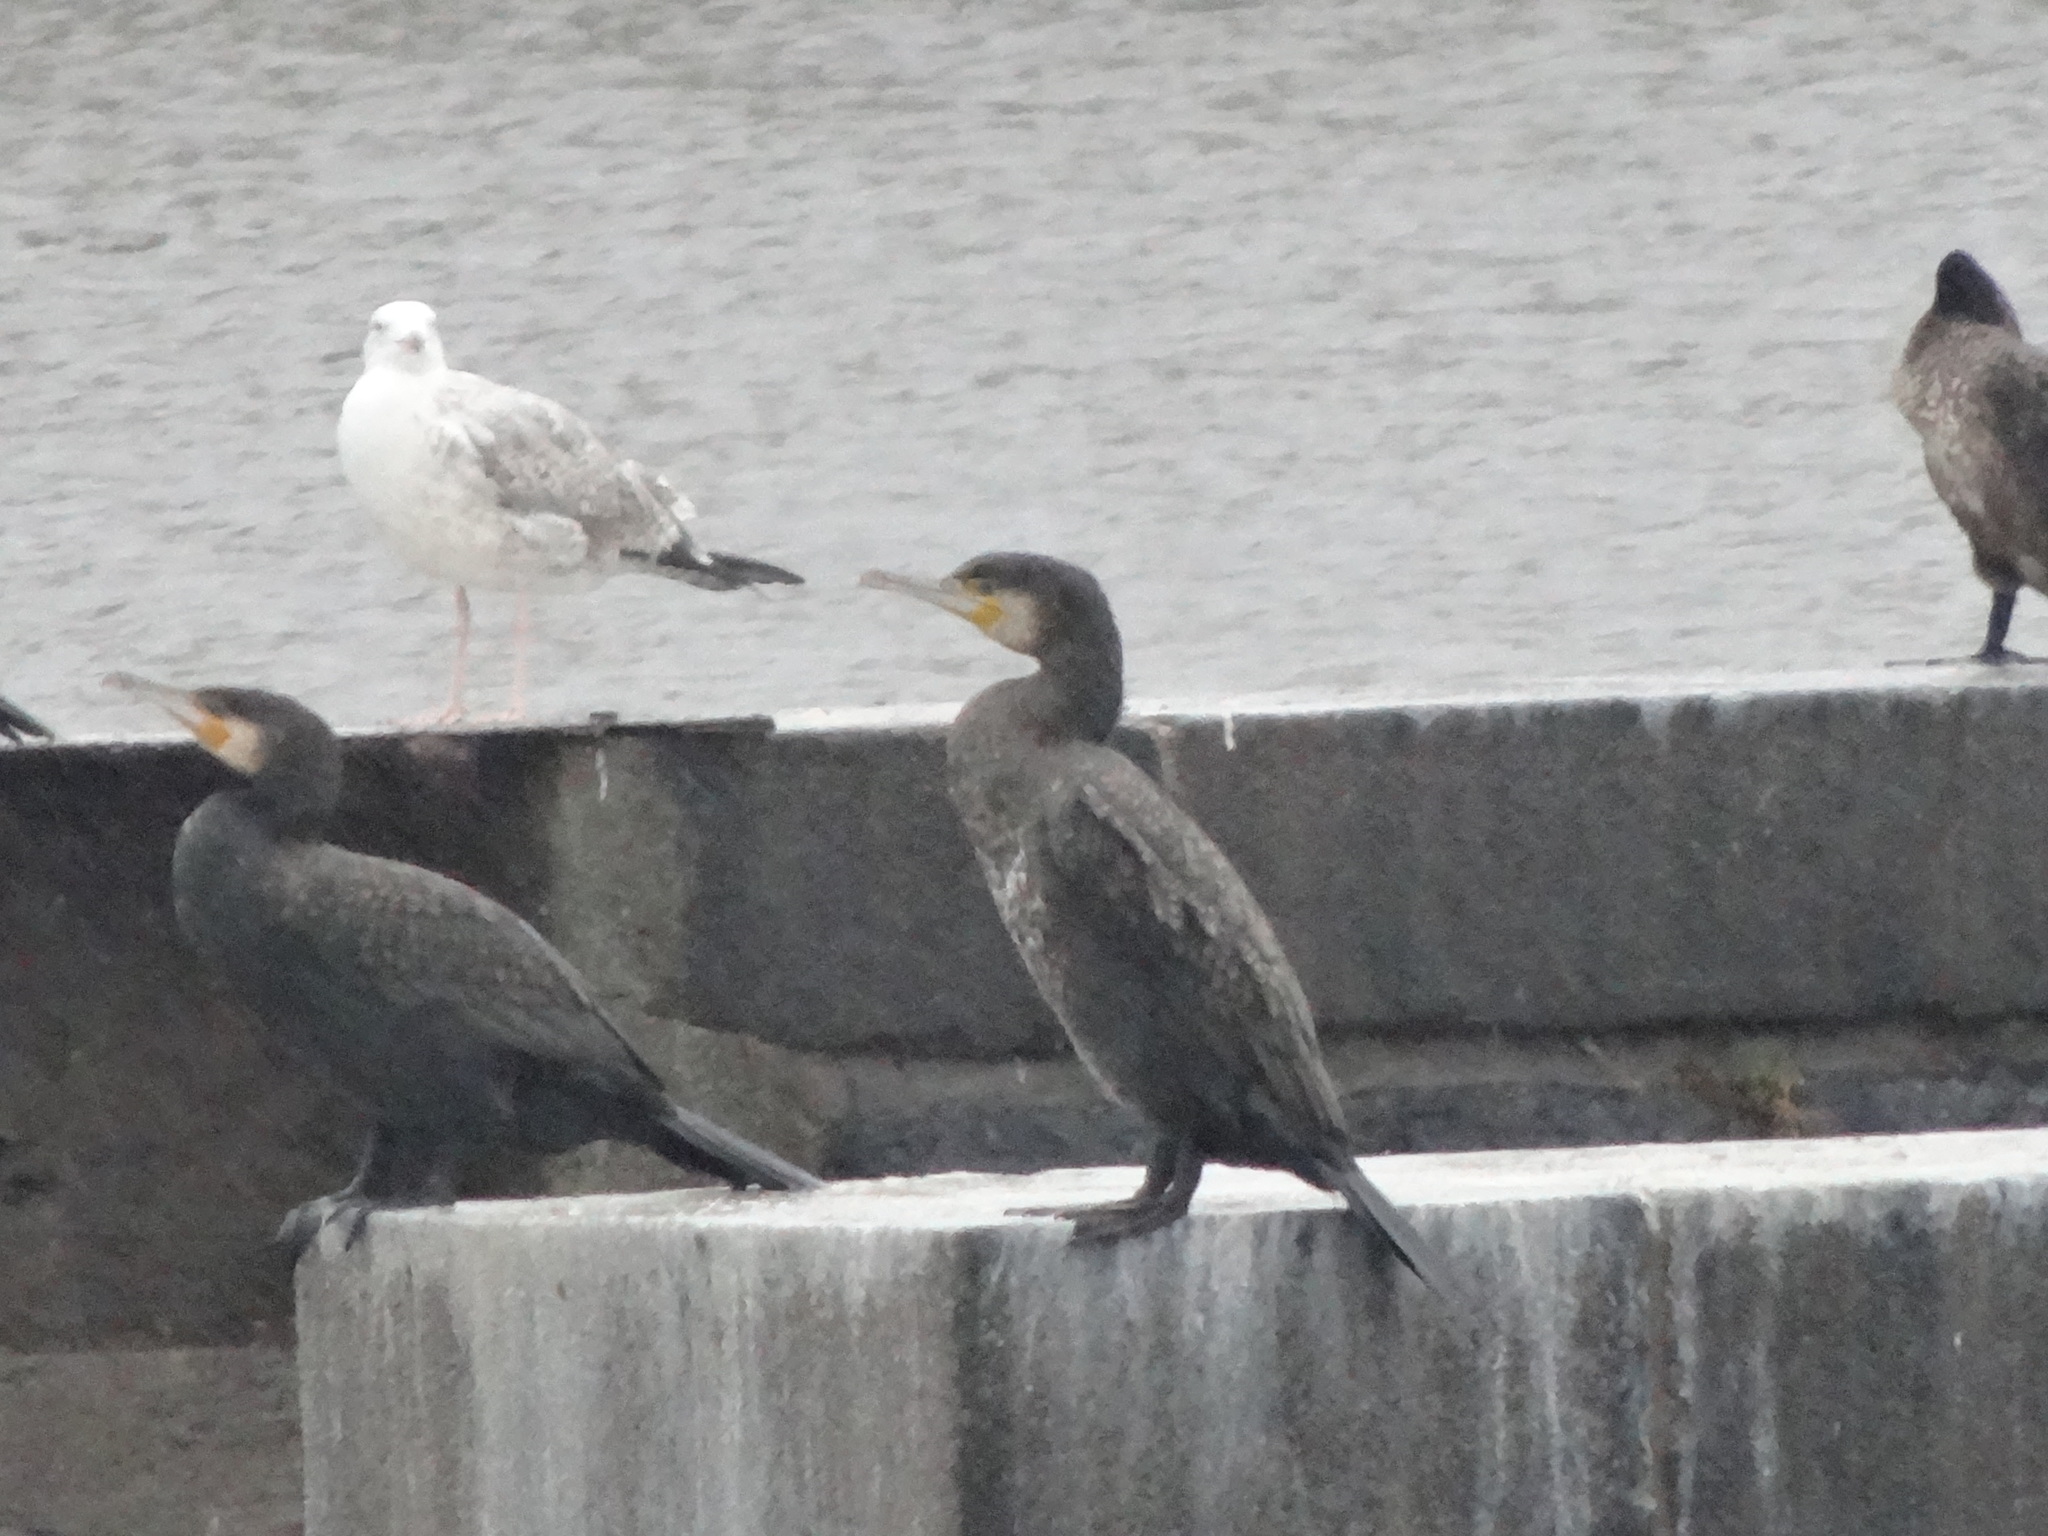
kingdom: Animalia
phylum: Chordata
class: Aves
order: Suliformes
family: Phalacrocoracidae
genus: Phalacrocorax
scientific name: Phalacrocorax carbo
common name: Great cormorant
